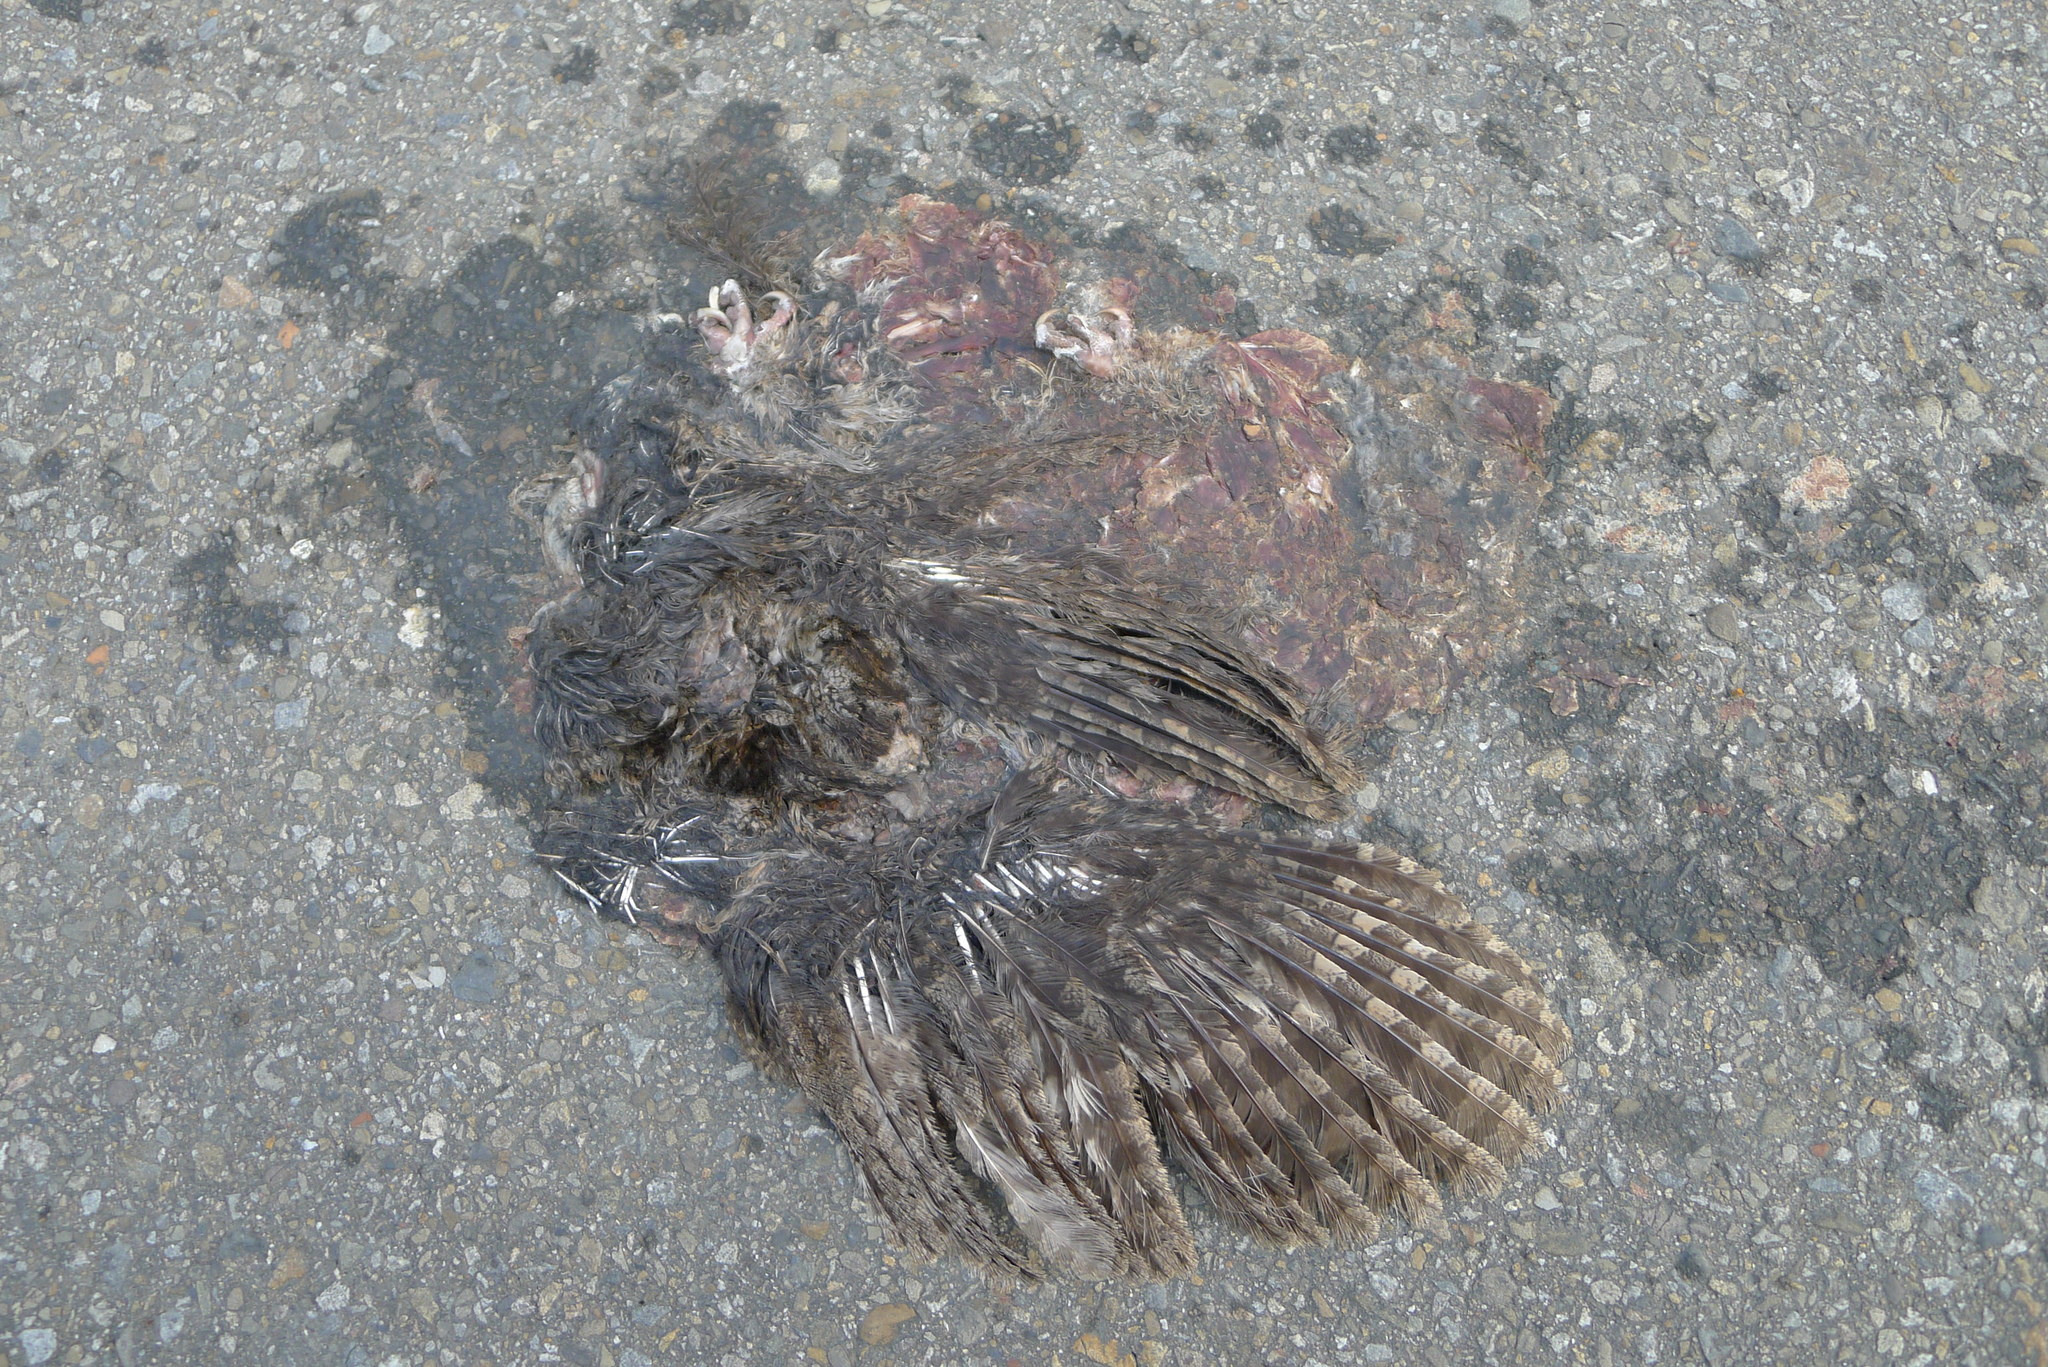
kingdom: Animalia
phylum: Chordata
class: Aves
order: Strigiformes
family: Strigidae
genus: Otus
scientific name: Otus lettia
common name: Collared scops owl
